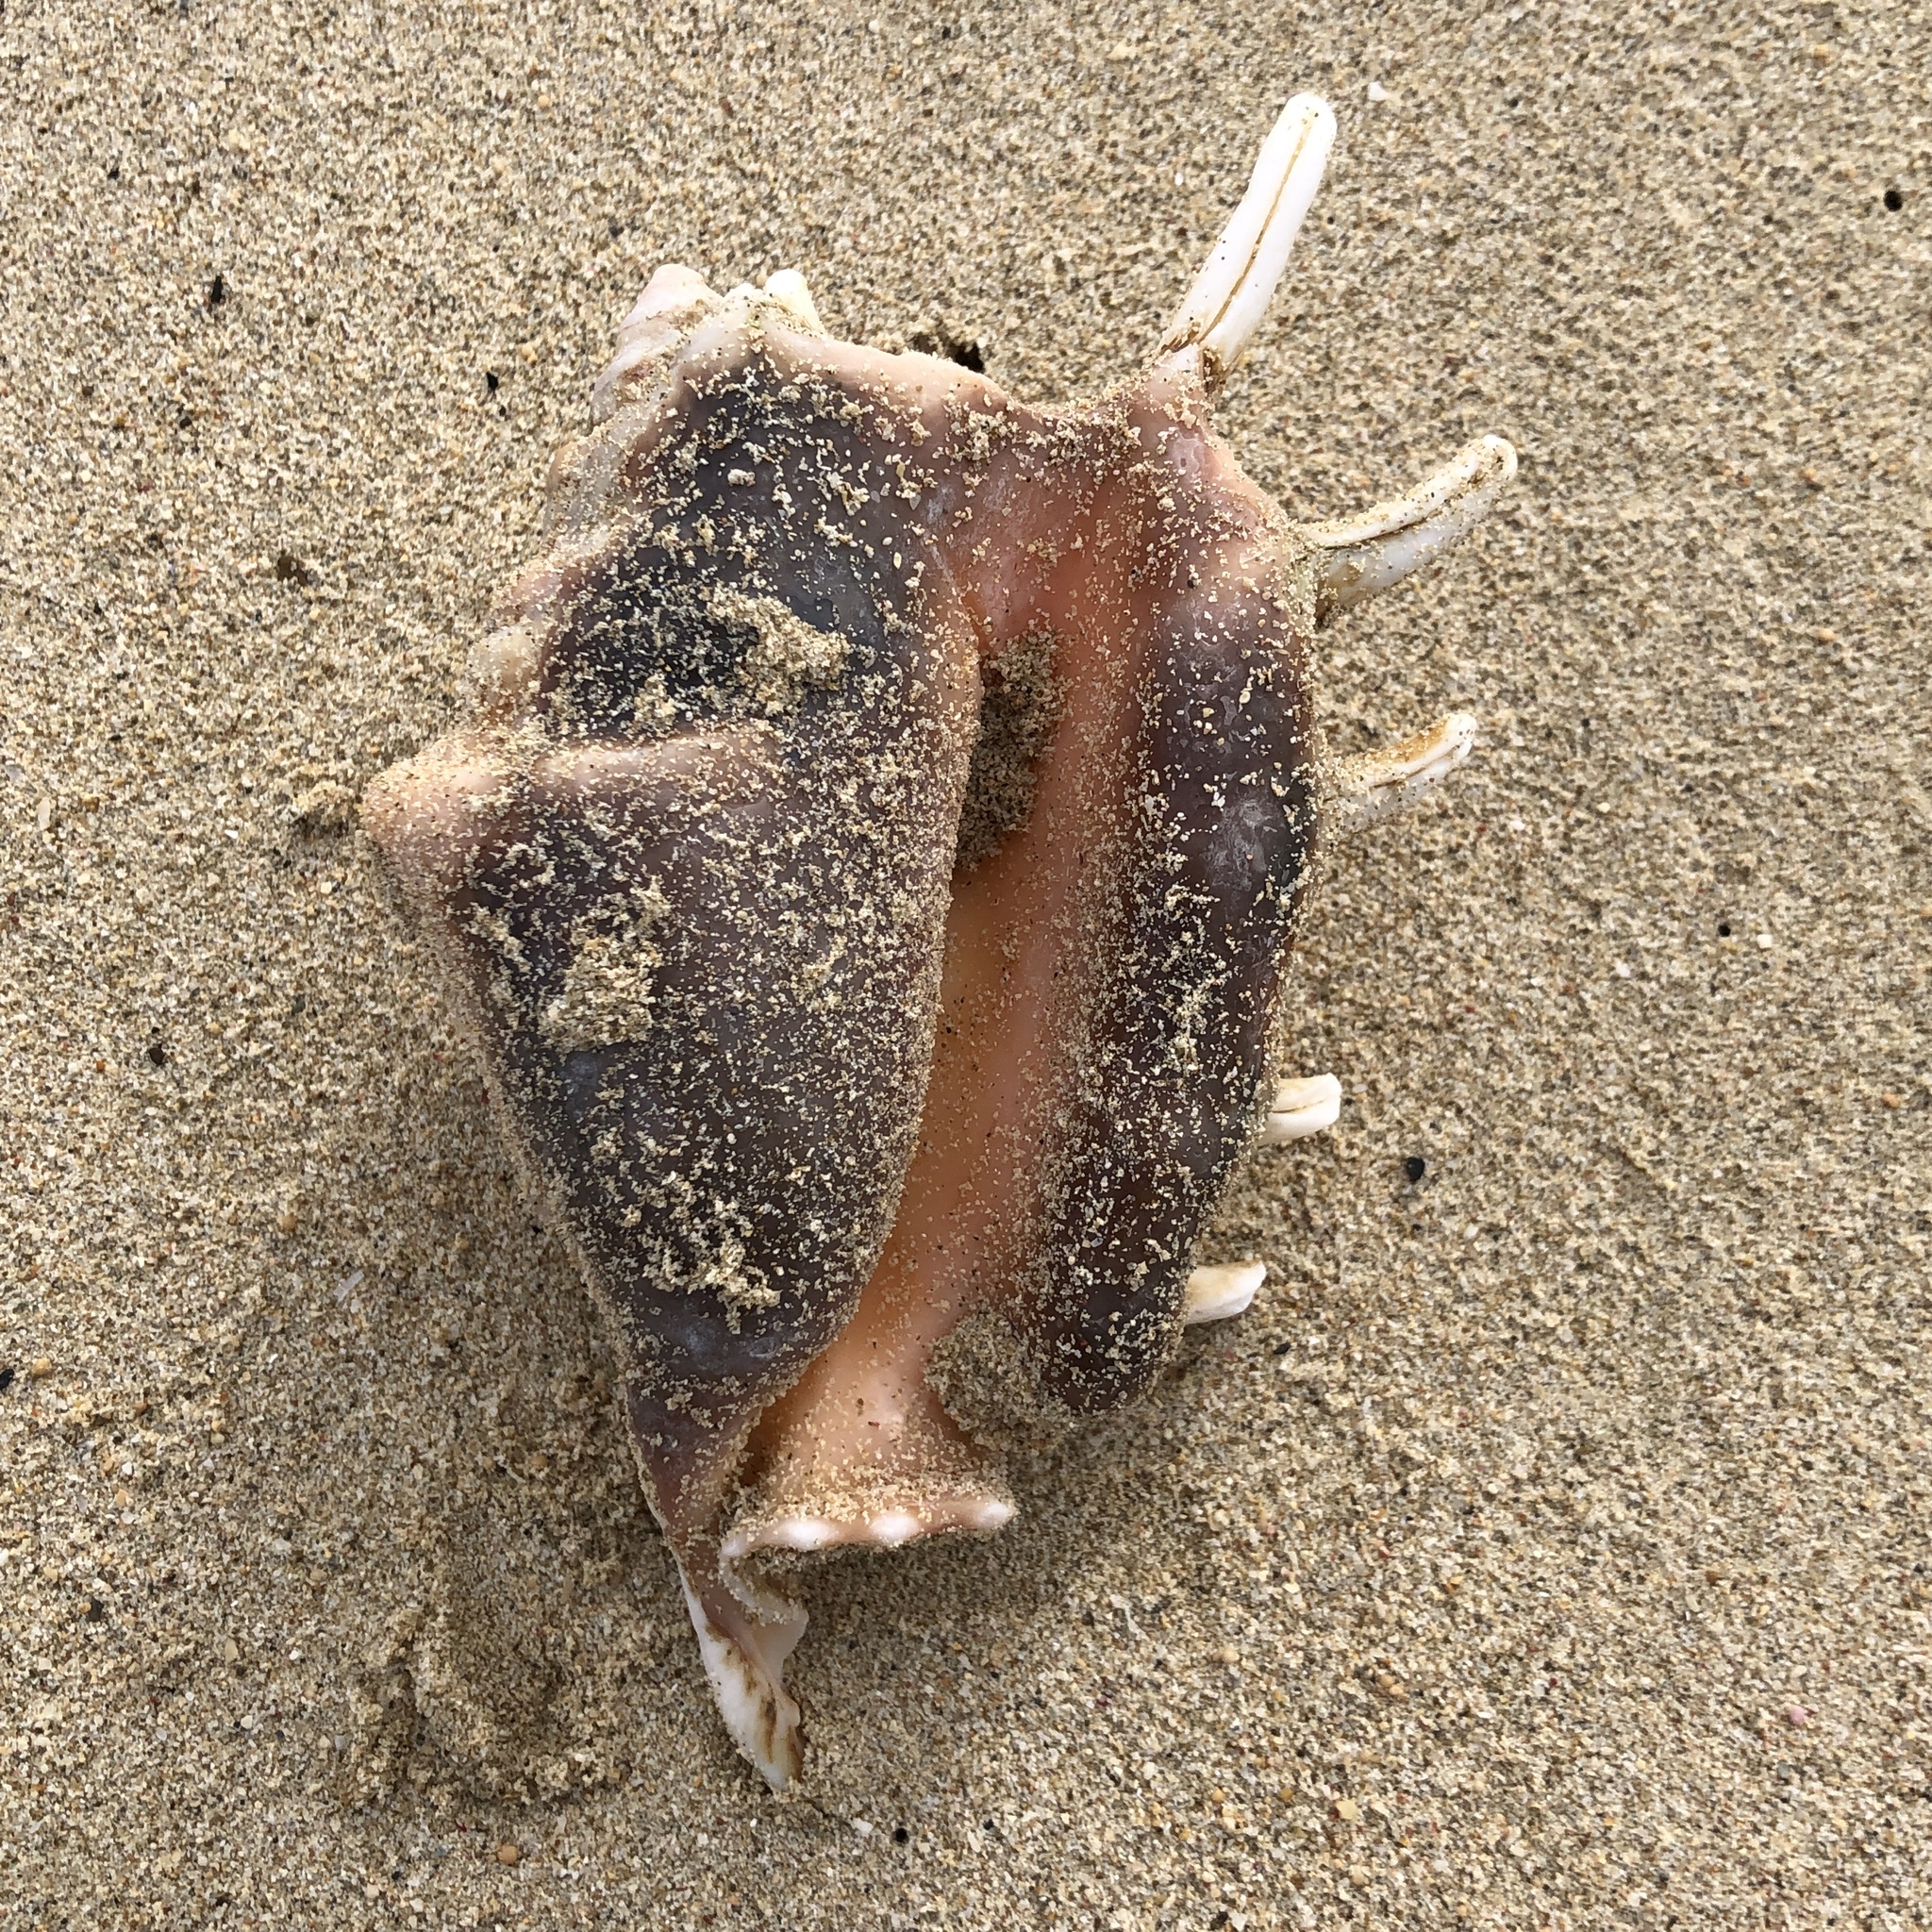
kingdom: Animalia
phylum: Mollusca
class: Gastropoda
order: Littorinimorpha
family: Strombidae
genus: Lambis
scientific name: Lambis lambis
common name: Common spider conch
